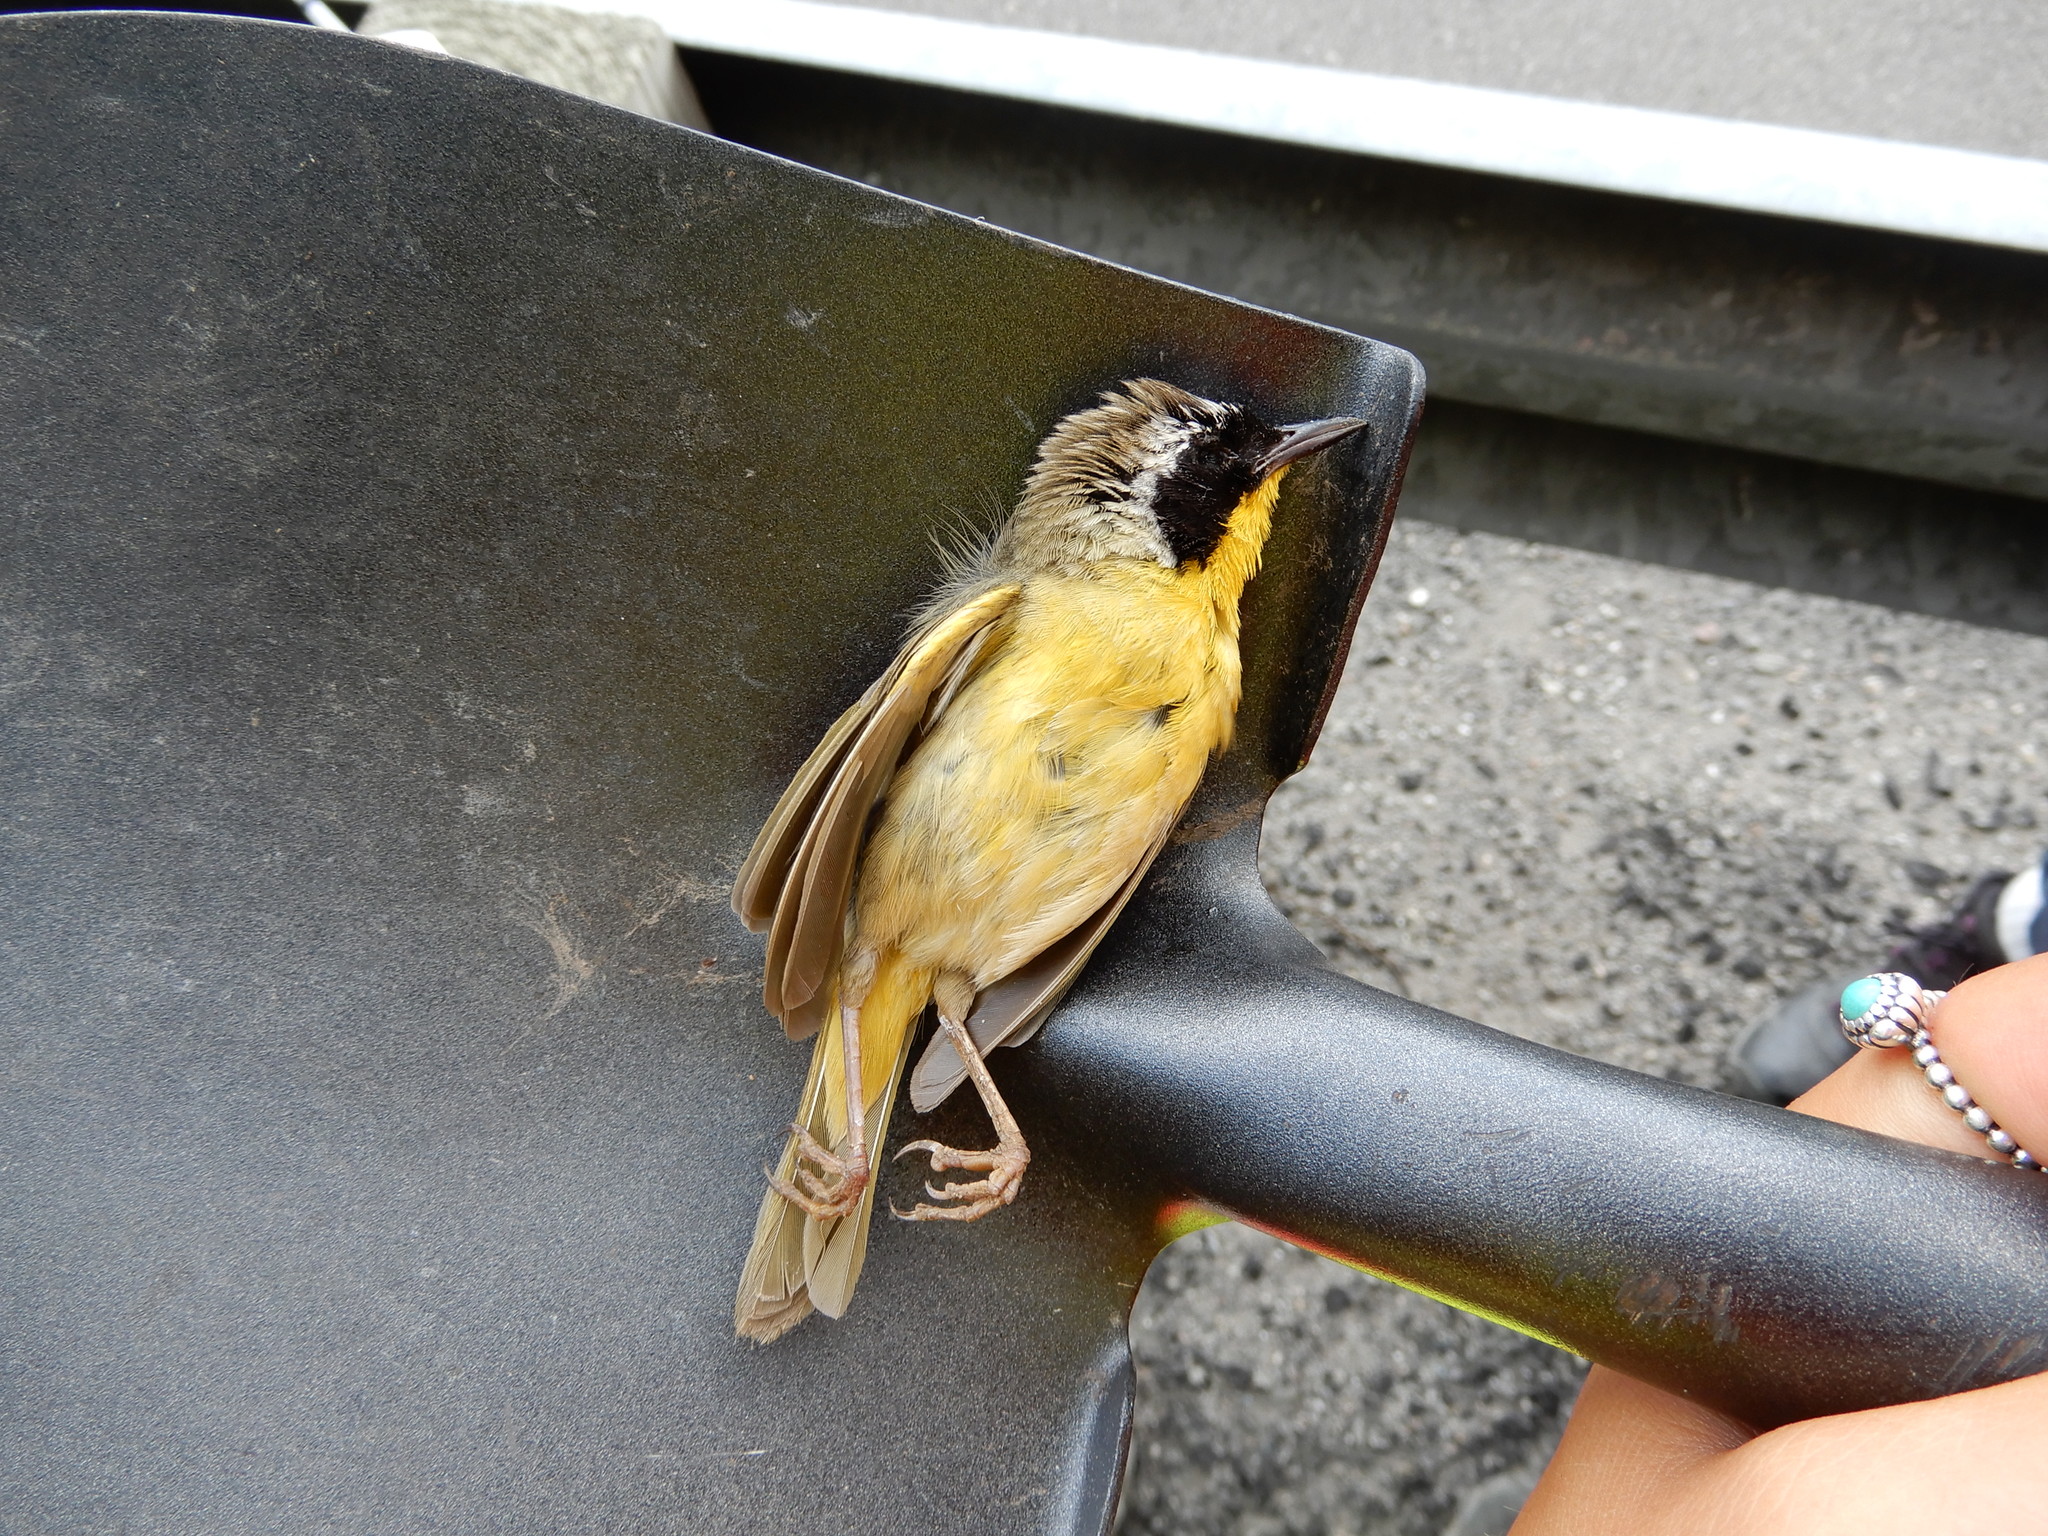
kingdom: Animalia
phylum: Chordata
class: Aves
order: Passeriformes
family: Parulidae
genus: Geothlypis
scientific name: Geothlypis trichas
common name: Common yellowthroat
